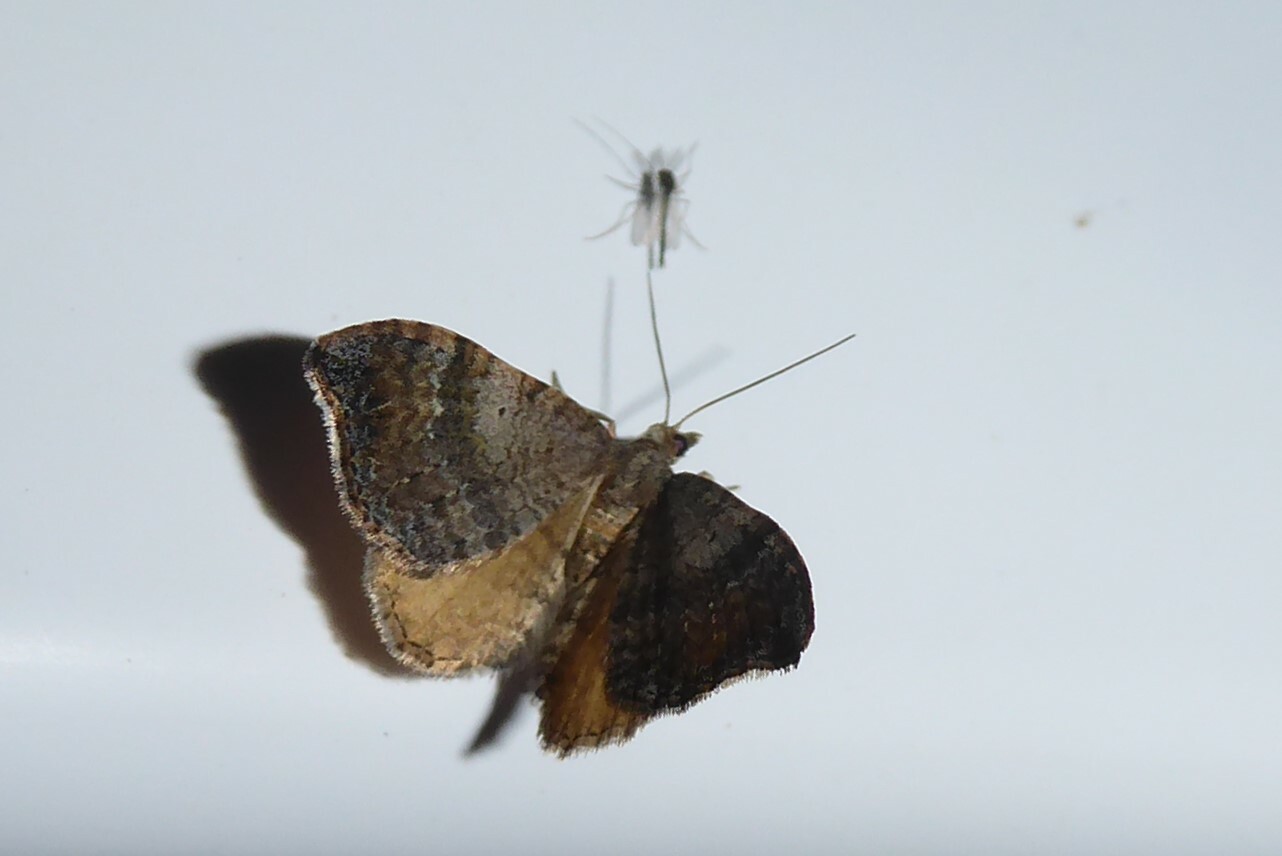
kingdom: Animalia
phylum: Arthropoda
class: Insecta
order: Lepidoptera
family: Geometridae
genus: Homodotis
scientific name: Homodotis megaspilata
